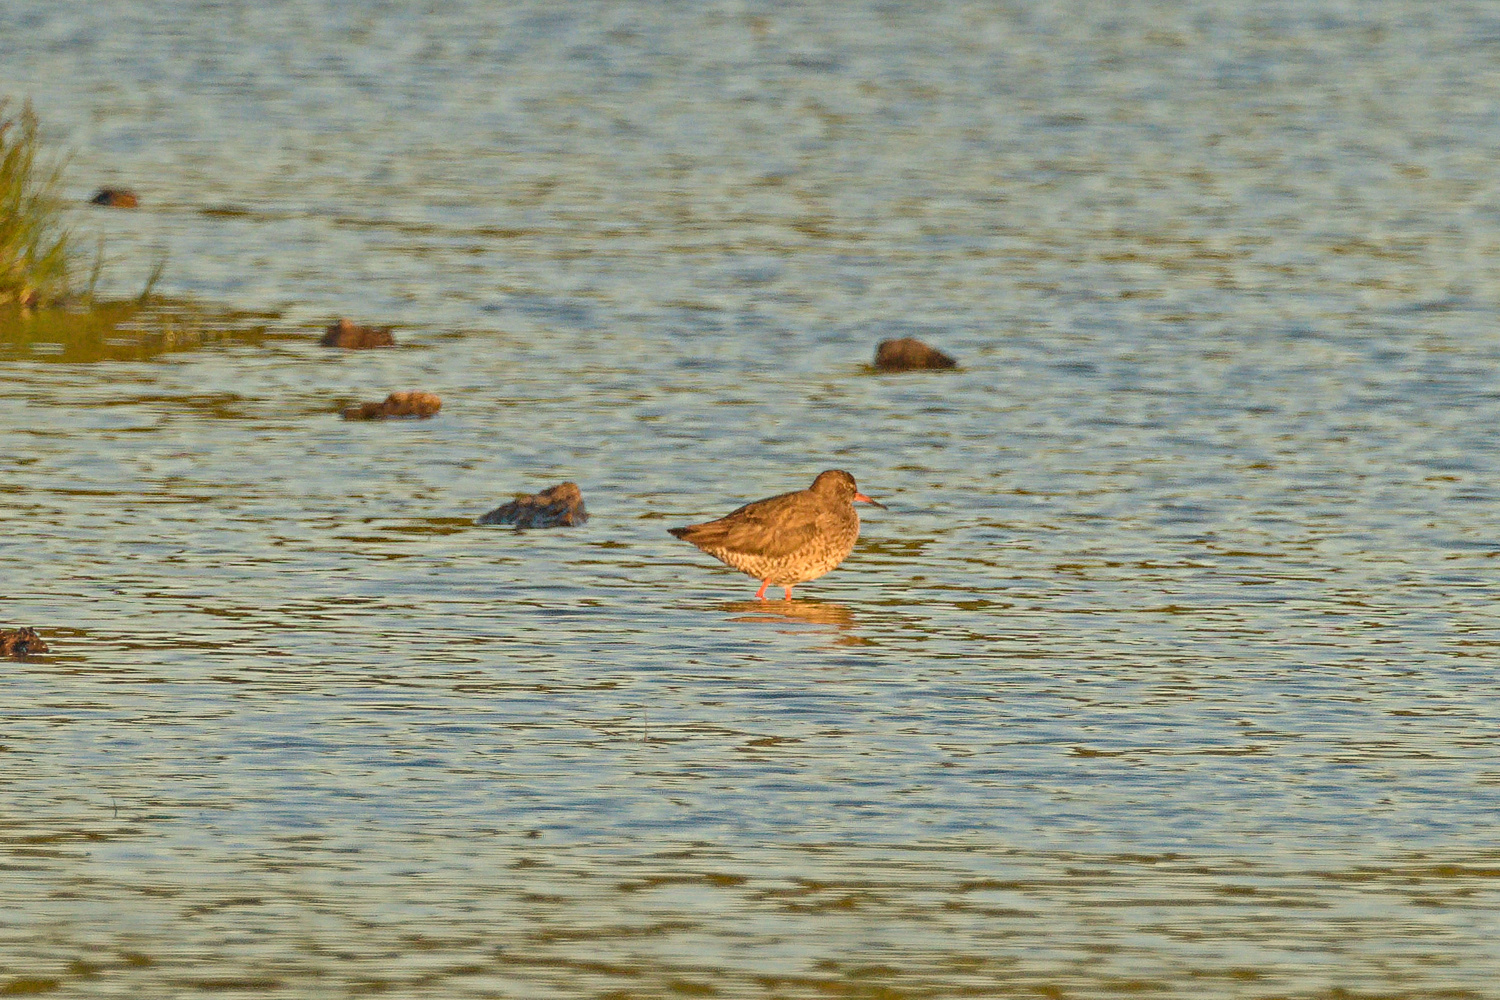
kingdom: Animalia
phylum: Chordata
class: Aves
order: Charadriiformes
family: Scolopacidae
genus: Tringa
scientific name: Tringa totanus
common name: Common redshank
